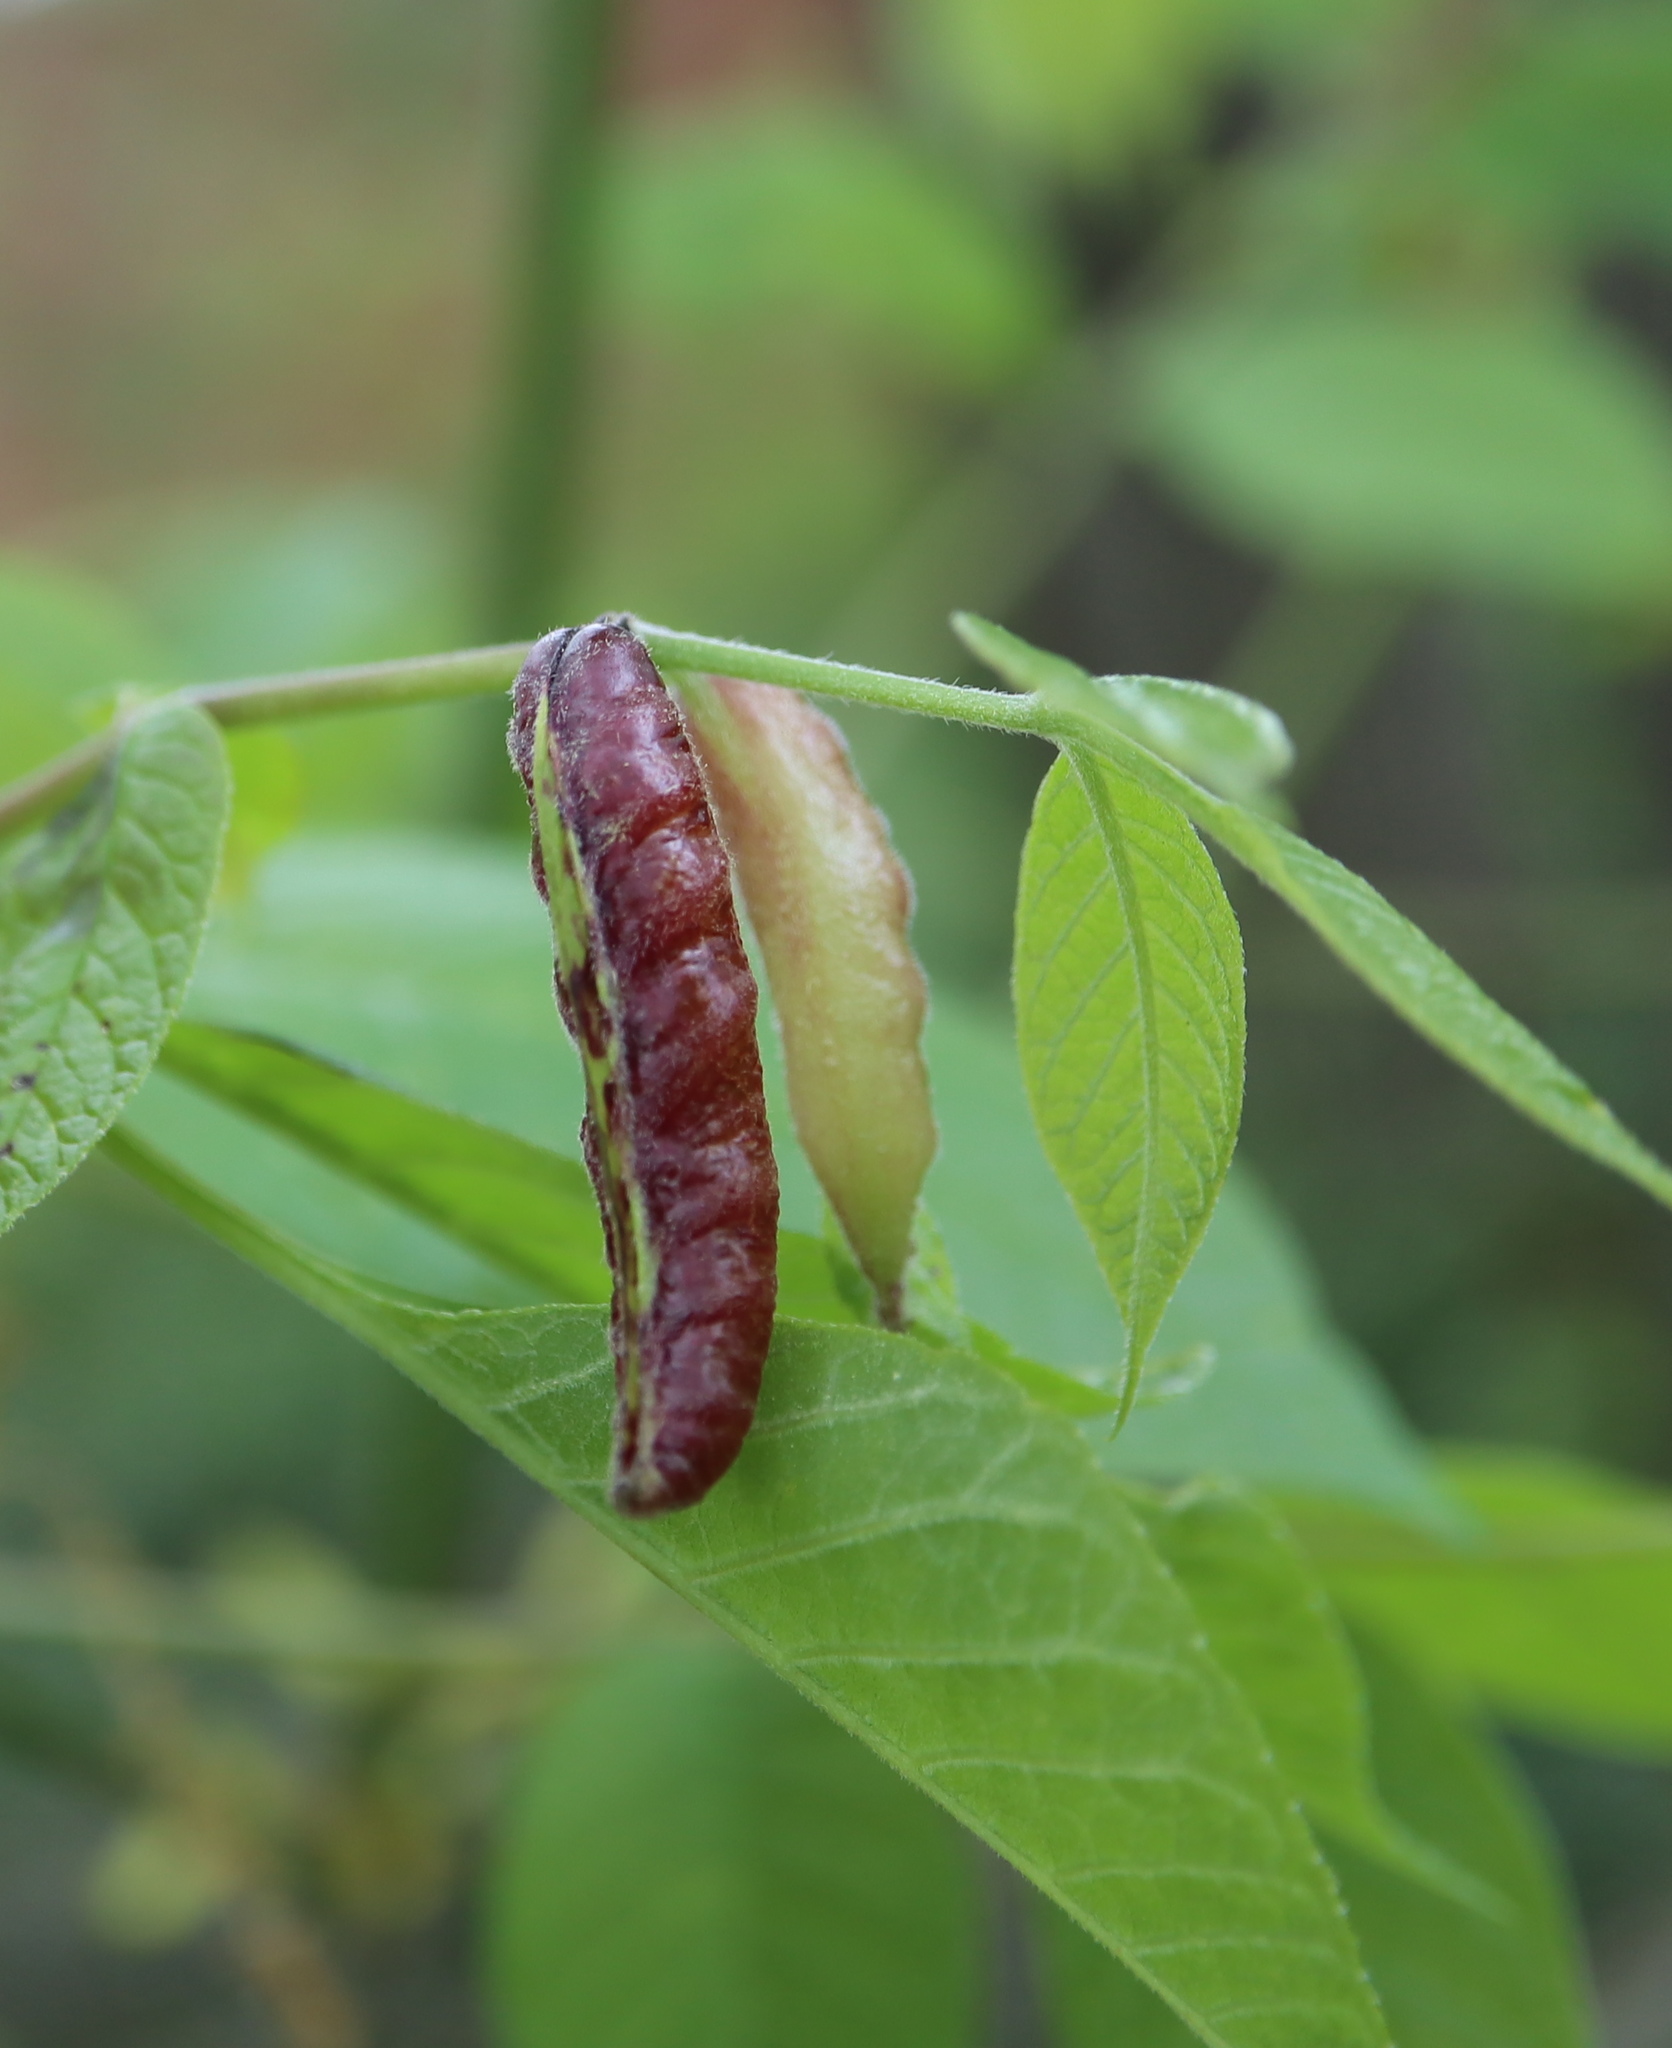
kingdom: Animalia
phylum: Arthropoda
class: Insecta
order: Diptera
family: Cecidomyiidae
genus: Dasineura
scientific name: Dasineura tumidosae
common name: Ash petiole gall midge
